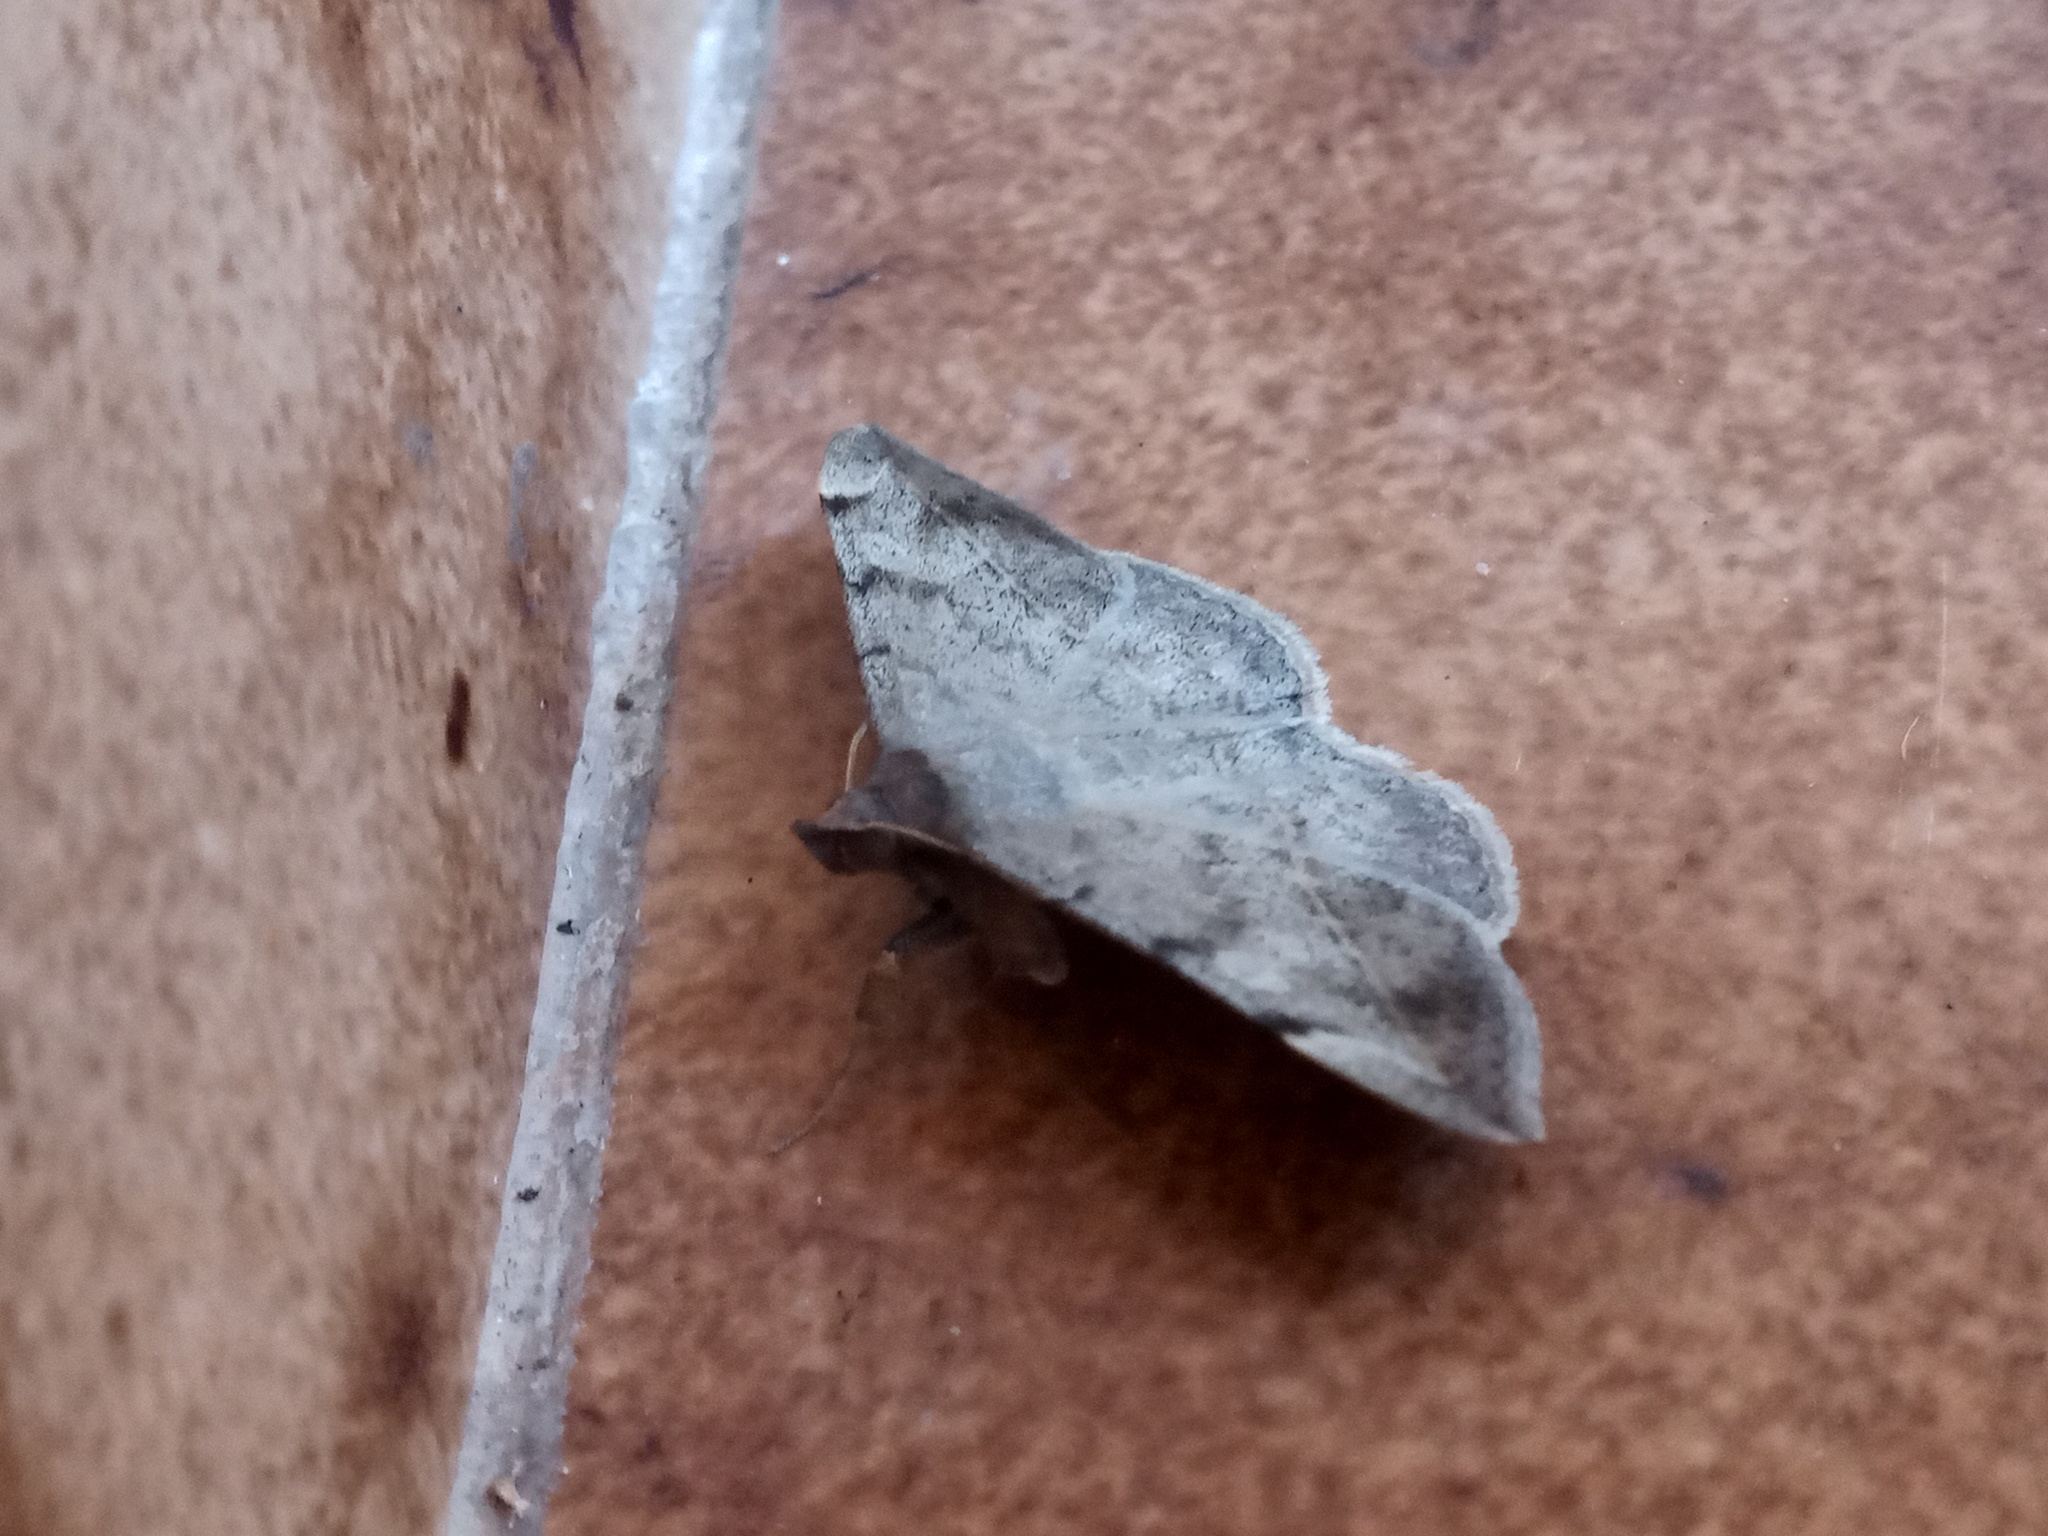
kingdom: Animalia
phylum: Arthropoda
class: Insecta
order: Lepidoptera
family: Erebidae
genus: Anticarsia
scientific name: Anticarsia gemmatalis
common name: Cutworm moth
